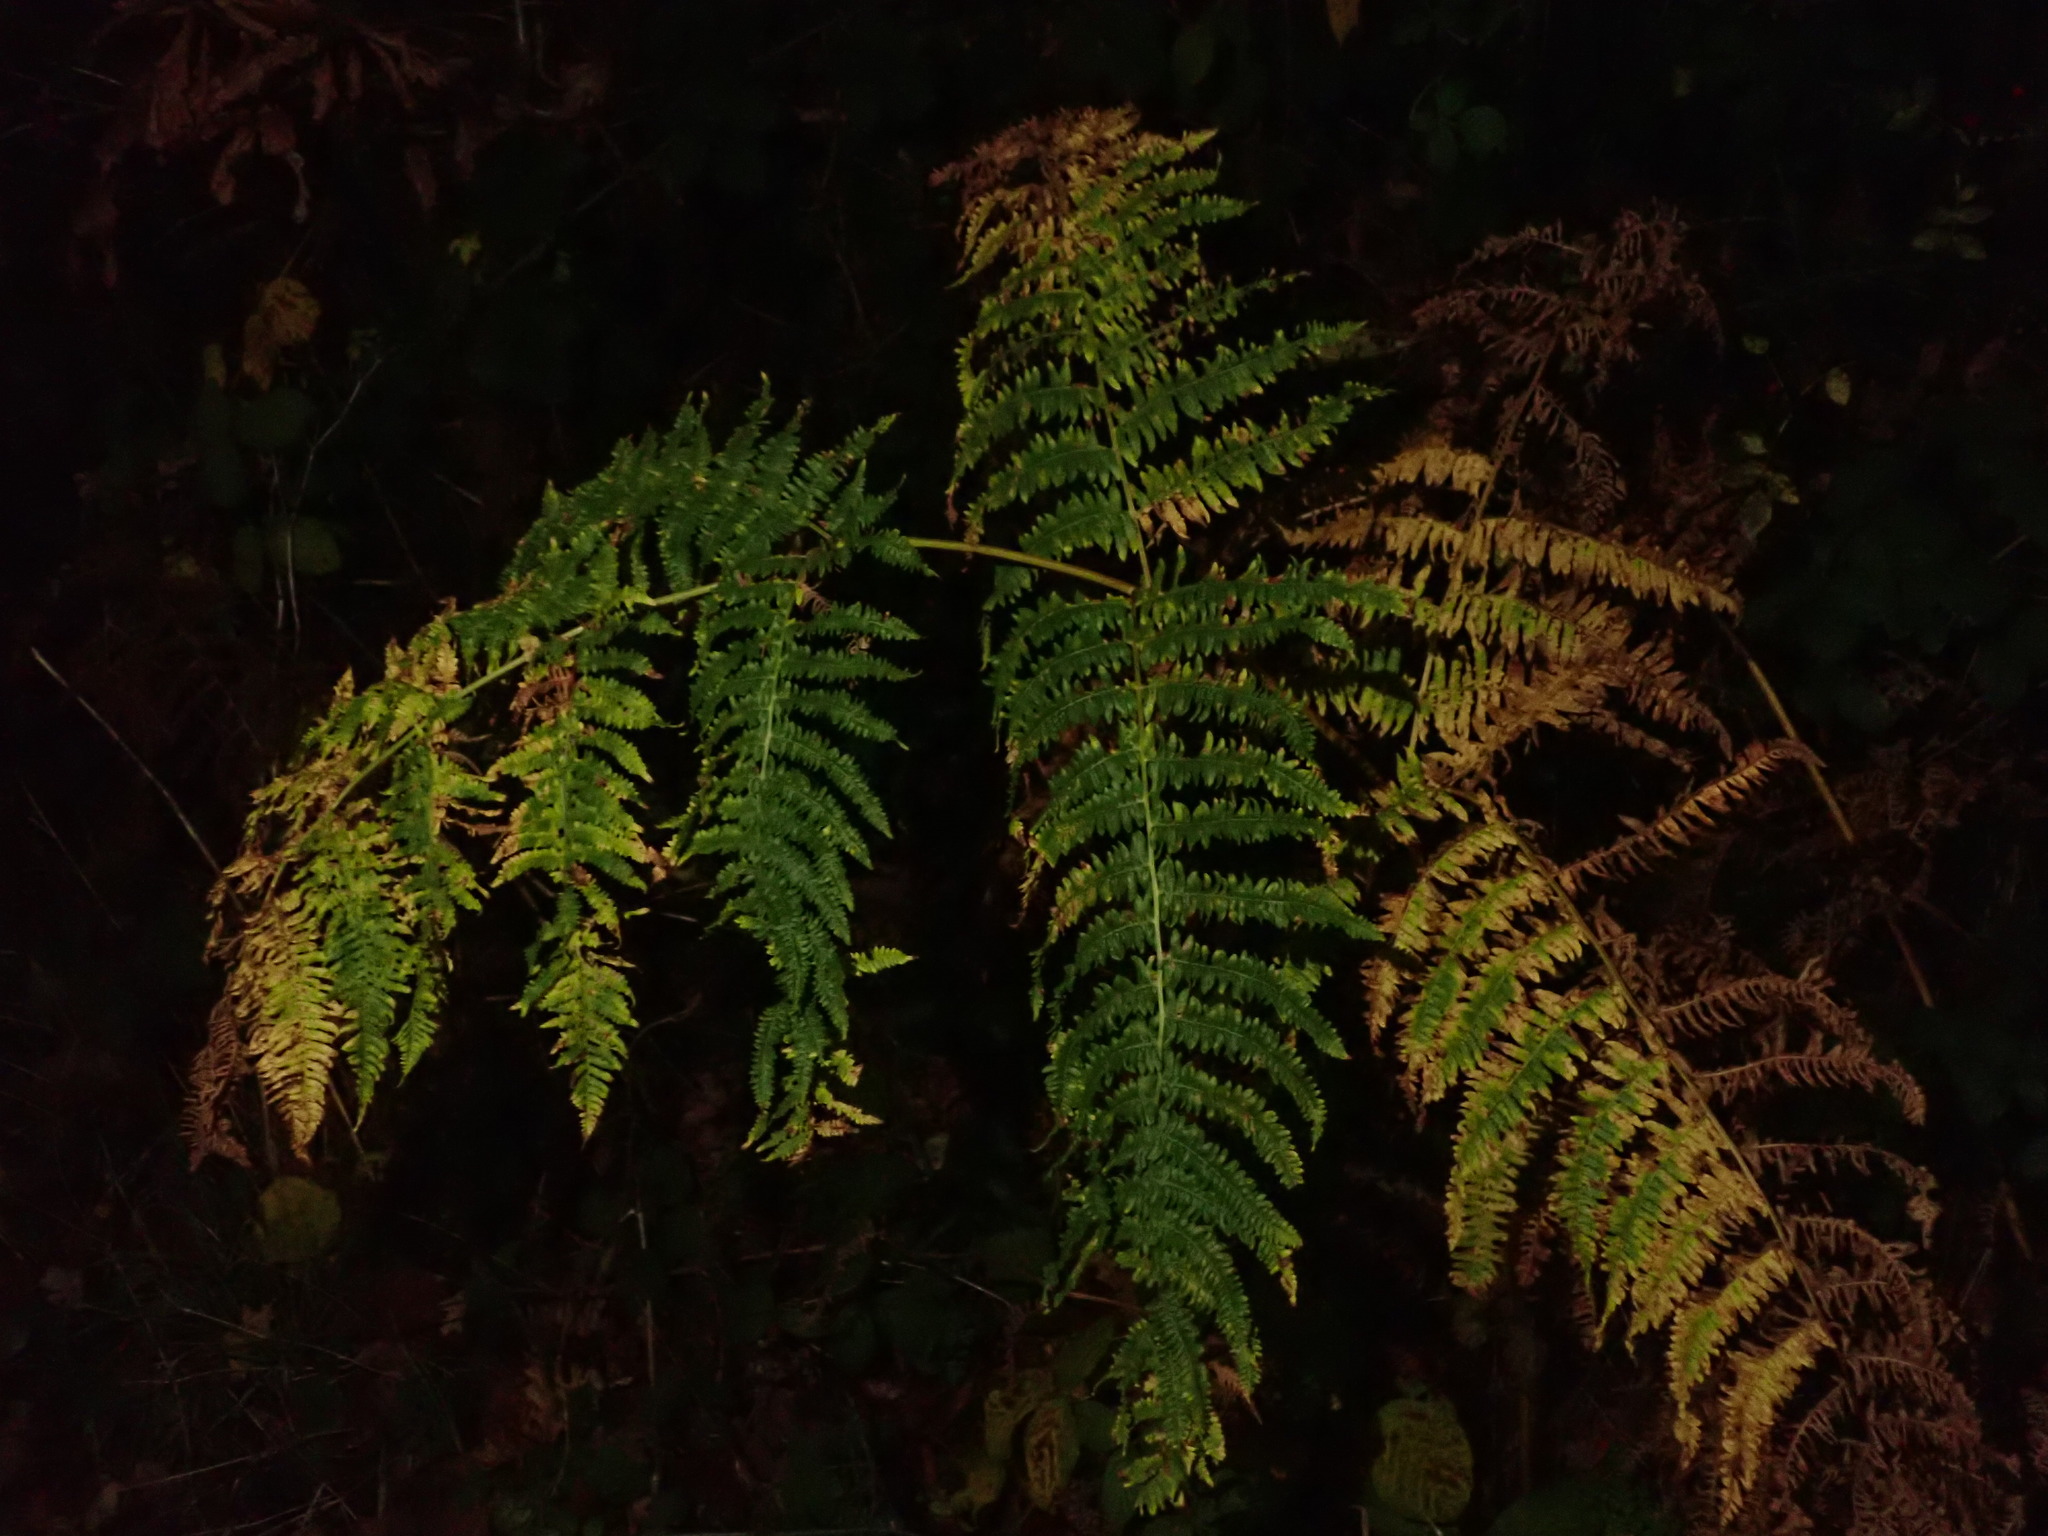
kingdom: Plantae
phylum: Tracheophyta
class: Polypodiopsida
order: Polypodiales
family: Dennstaedtiaceae
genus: Pteridium
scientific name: Pteridium aquilinum
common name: Bracken
